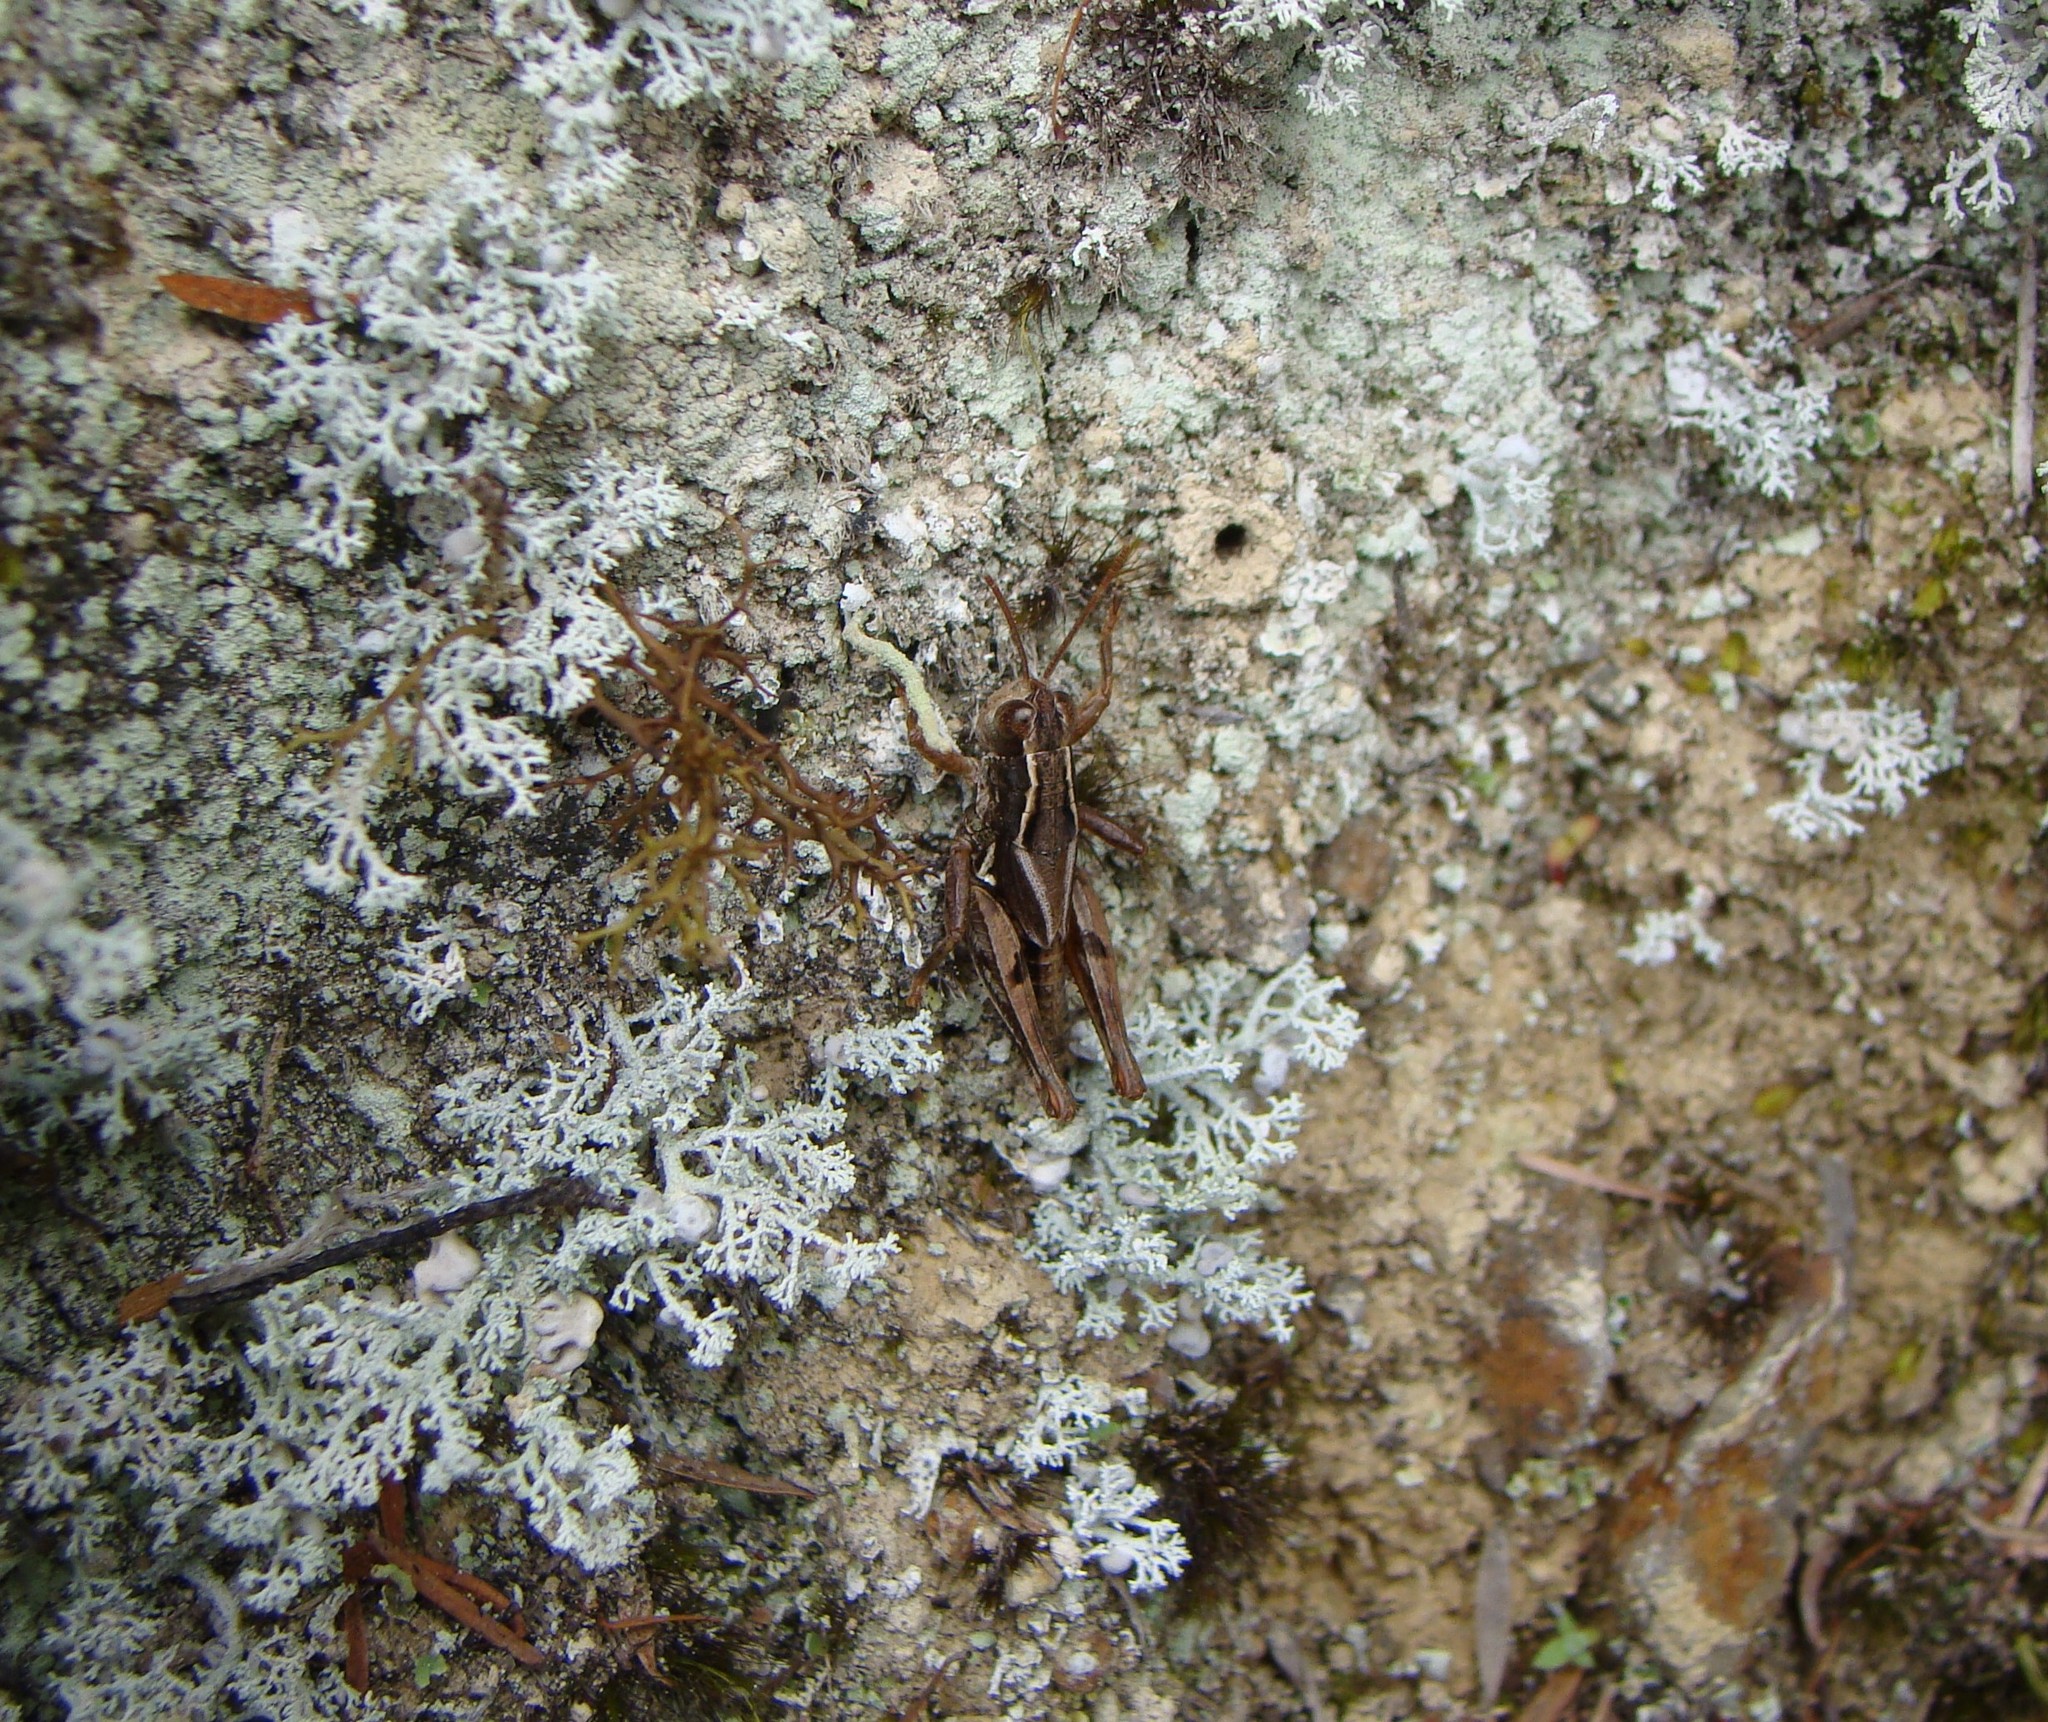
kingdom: Animalia
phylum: Arthropoda
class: Insecta
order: Orthoptera
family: Acrididae
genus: Phaulacridium
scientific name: Phaulacridium marginale
